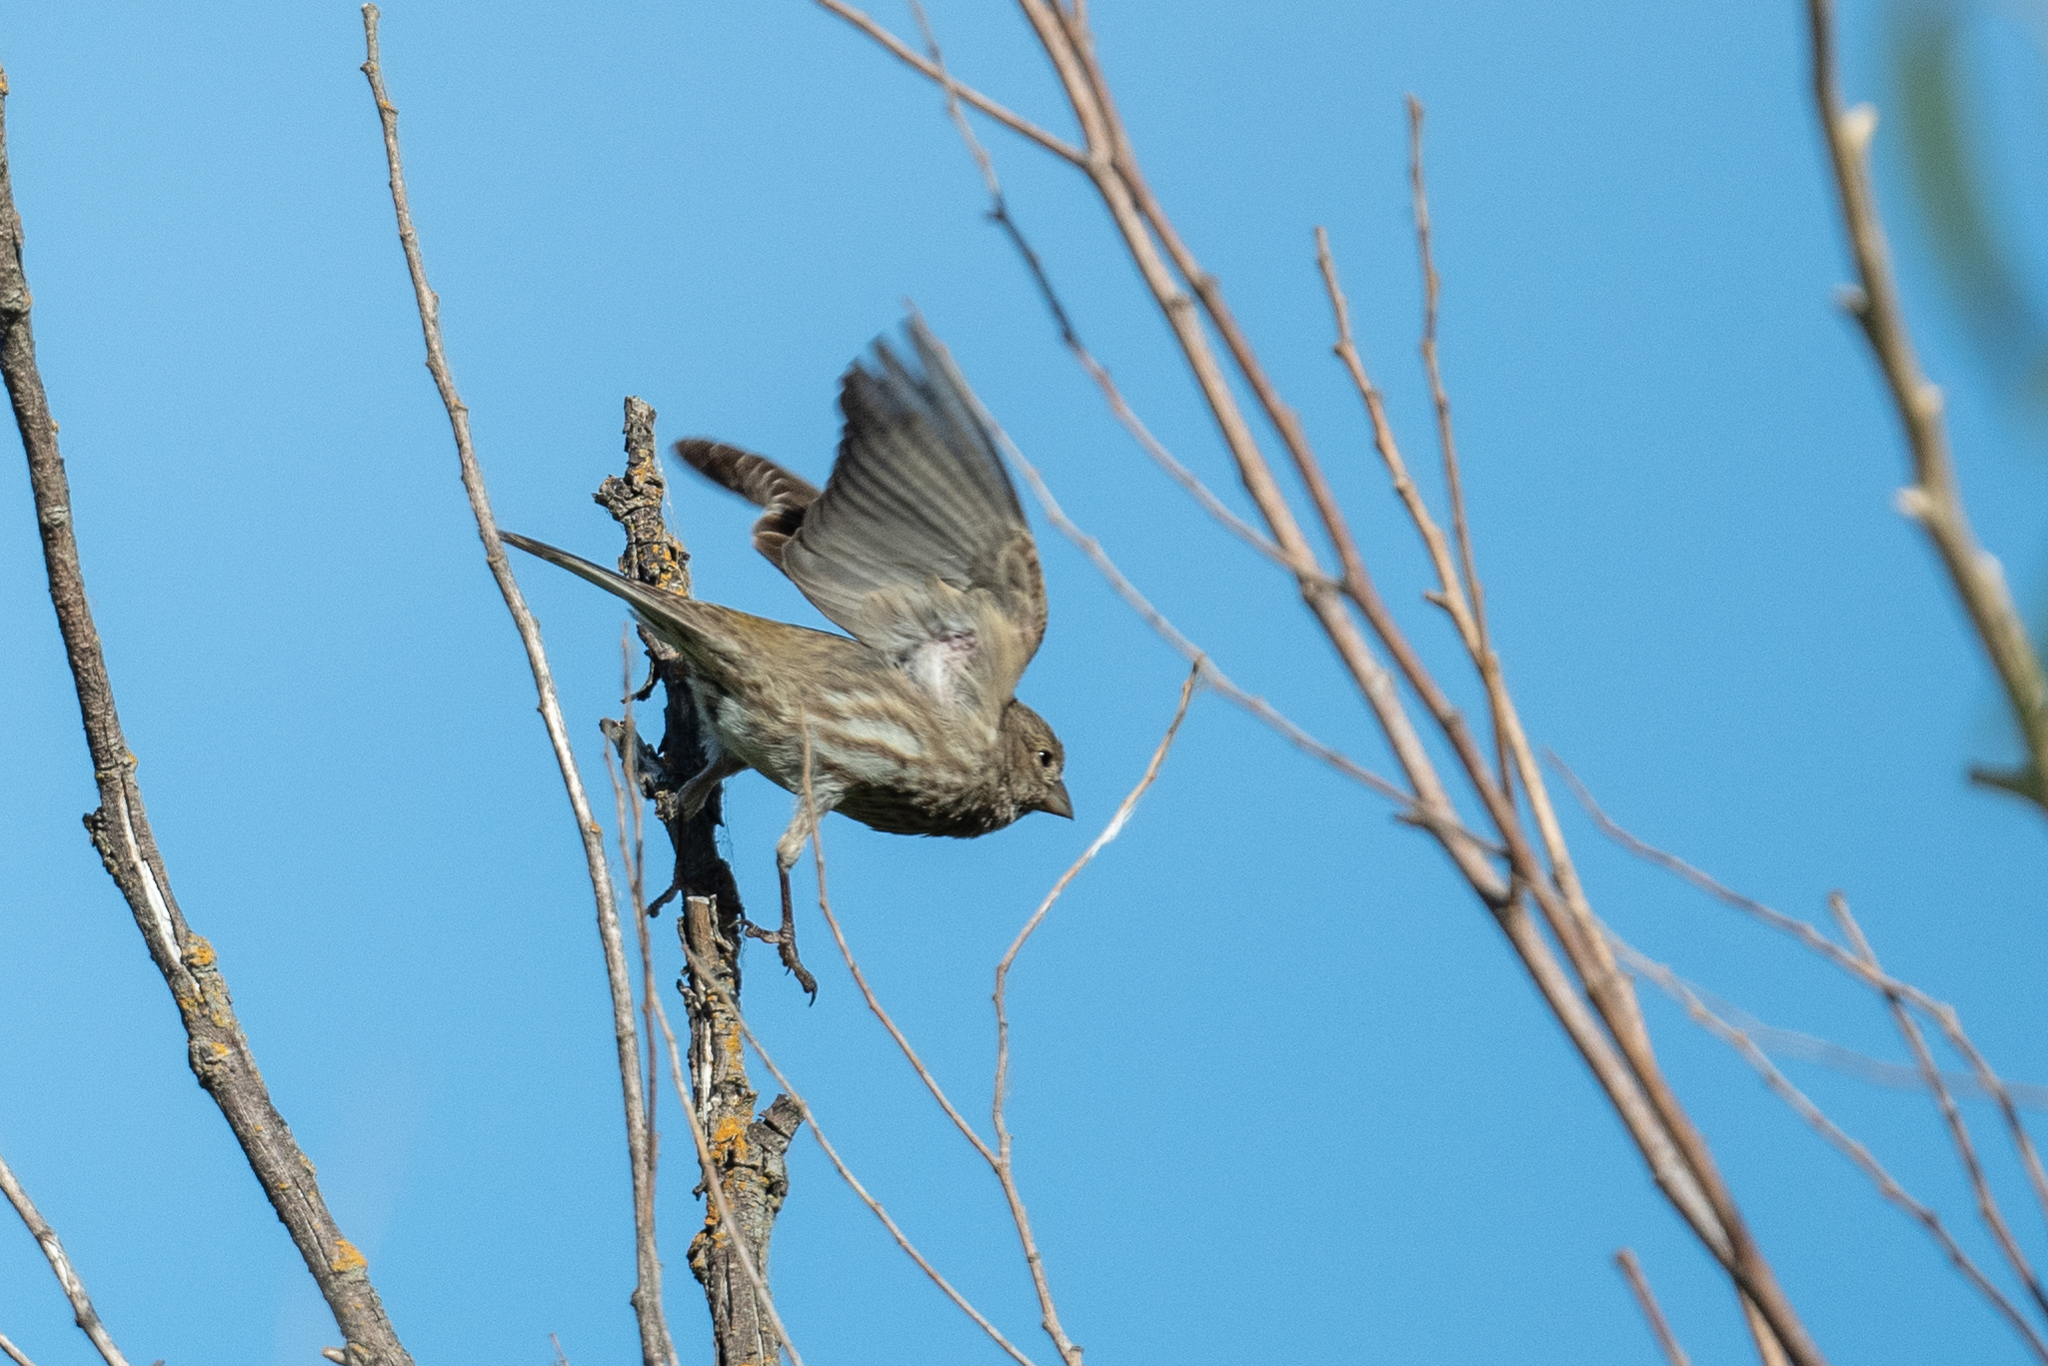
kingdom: Animalia
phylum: Chordata
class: Aves
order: Passeriformes
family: Fringillidae
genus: Haemorhous
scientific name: Haemorhous mexicanus
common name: House finch
